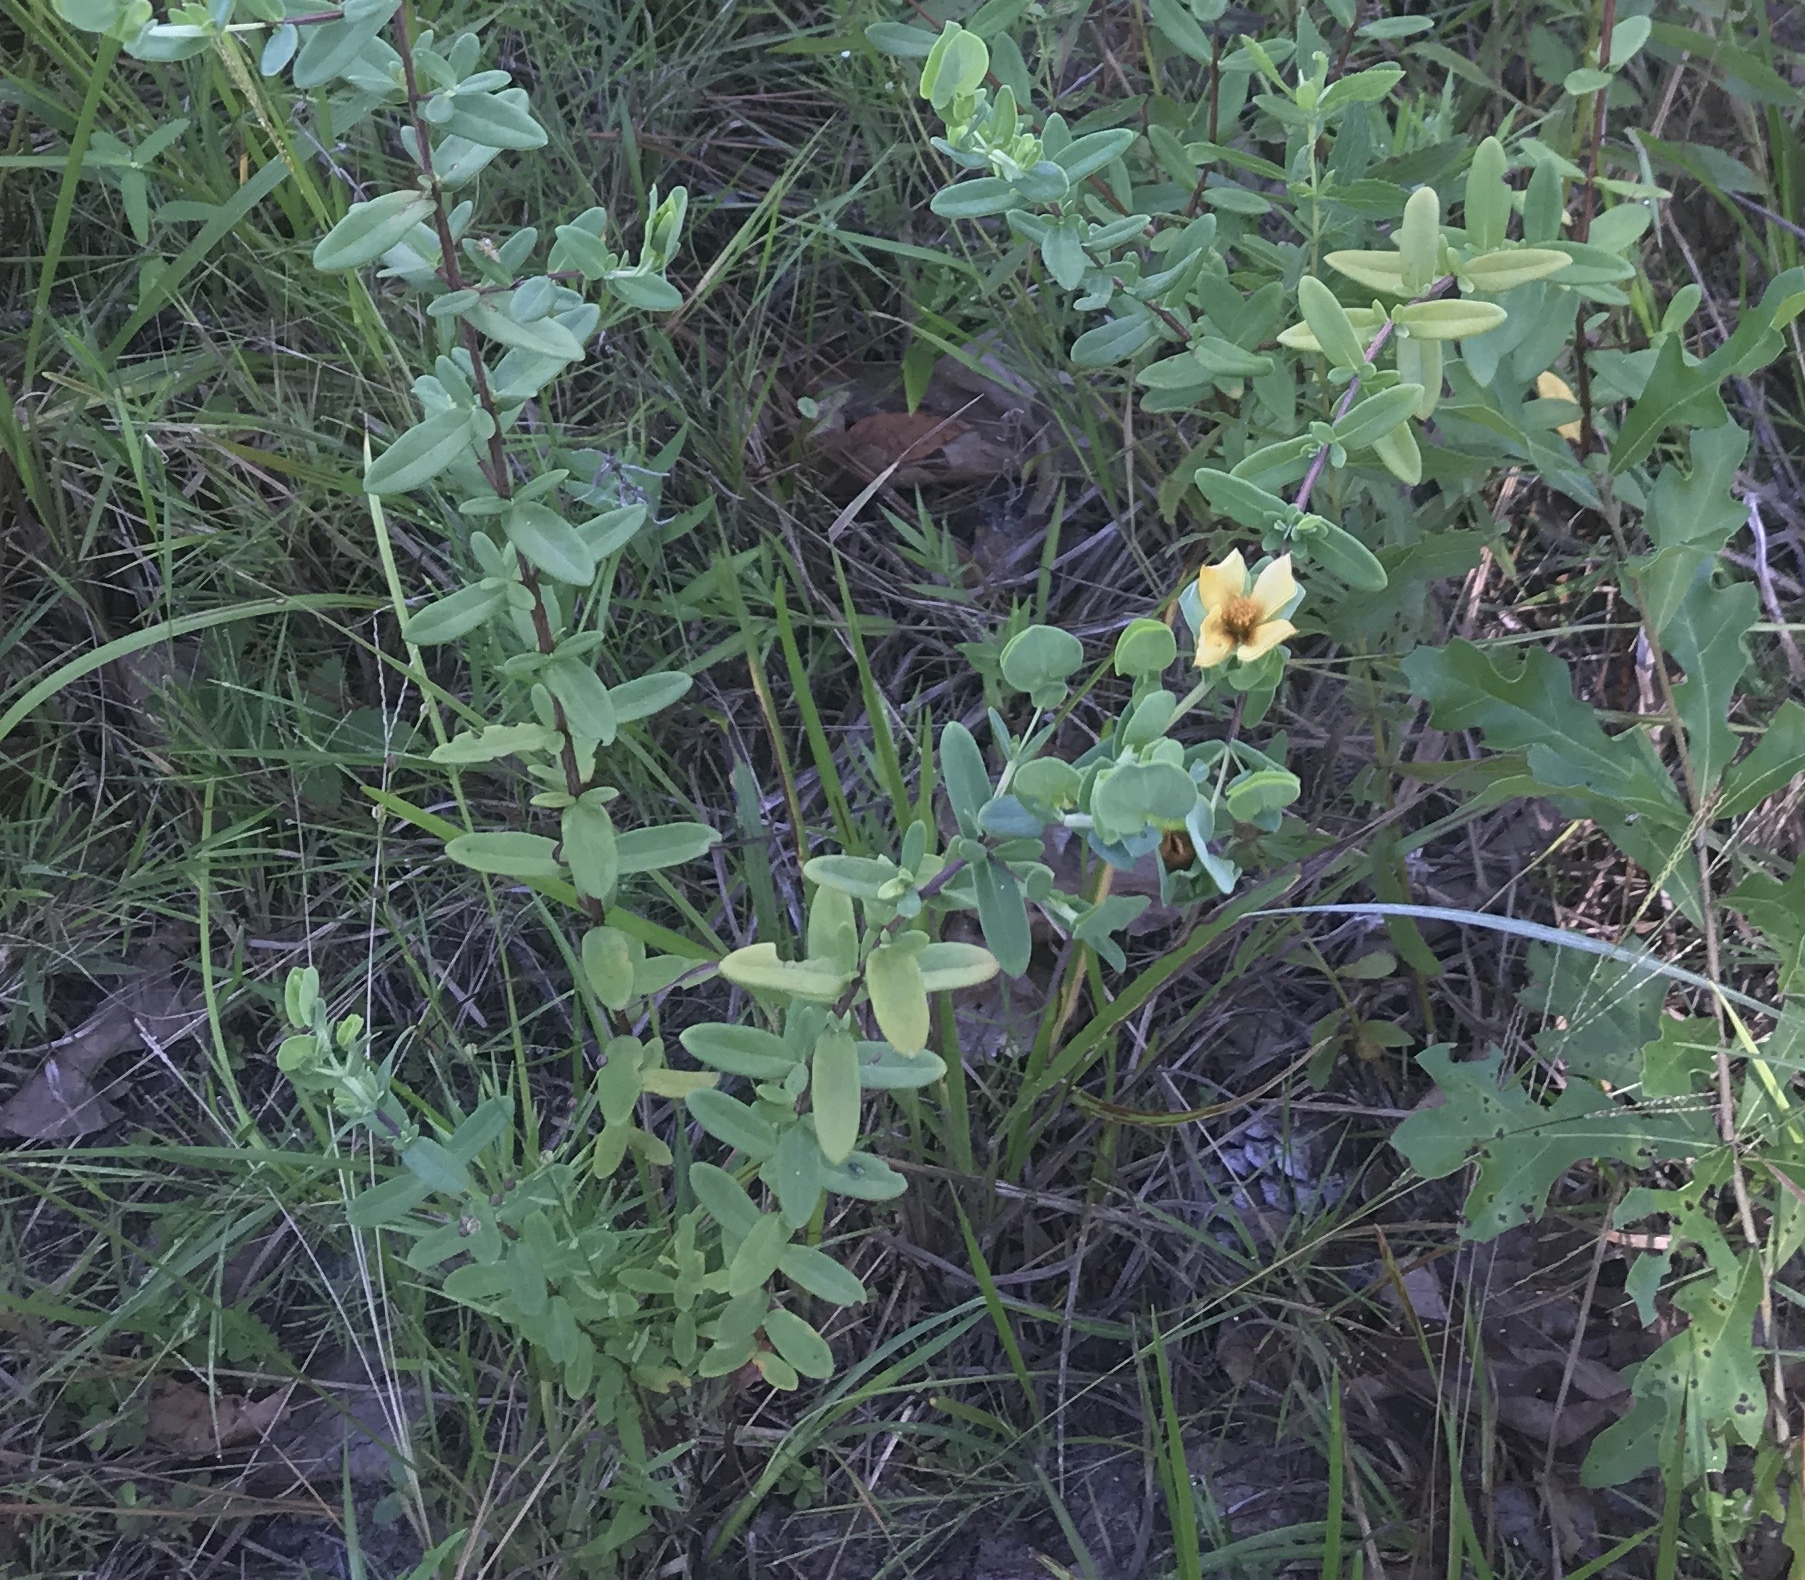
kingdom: Plantae
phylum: Tracheophyta
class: Magnoliopsida
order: Malpighiales
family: Hypericaceae
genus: Hypericum
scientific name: Hypericum crux-andreae
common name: St.-peter's-wort
